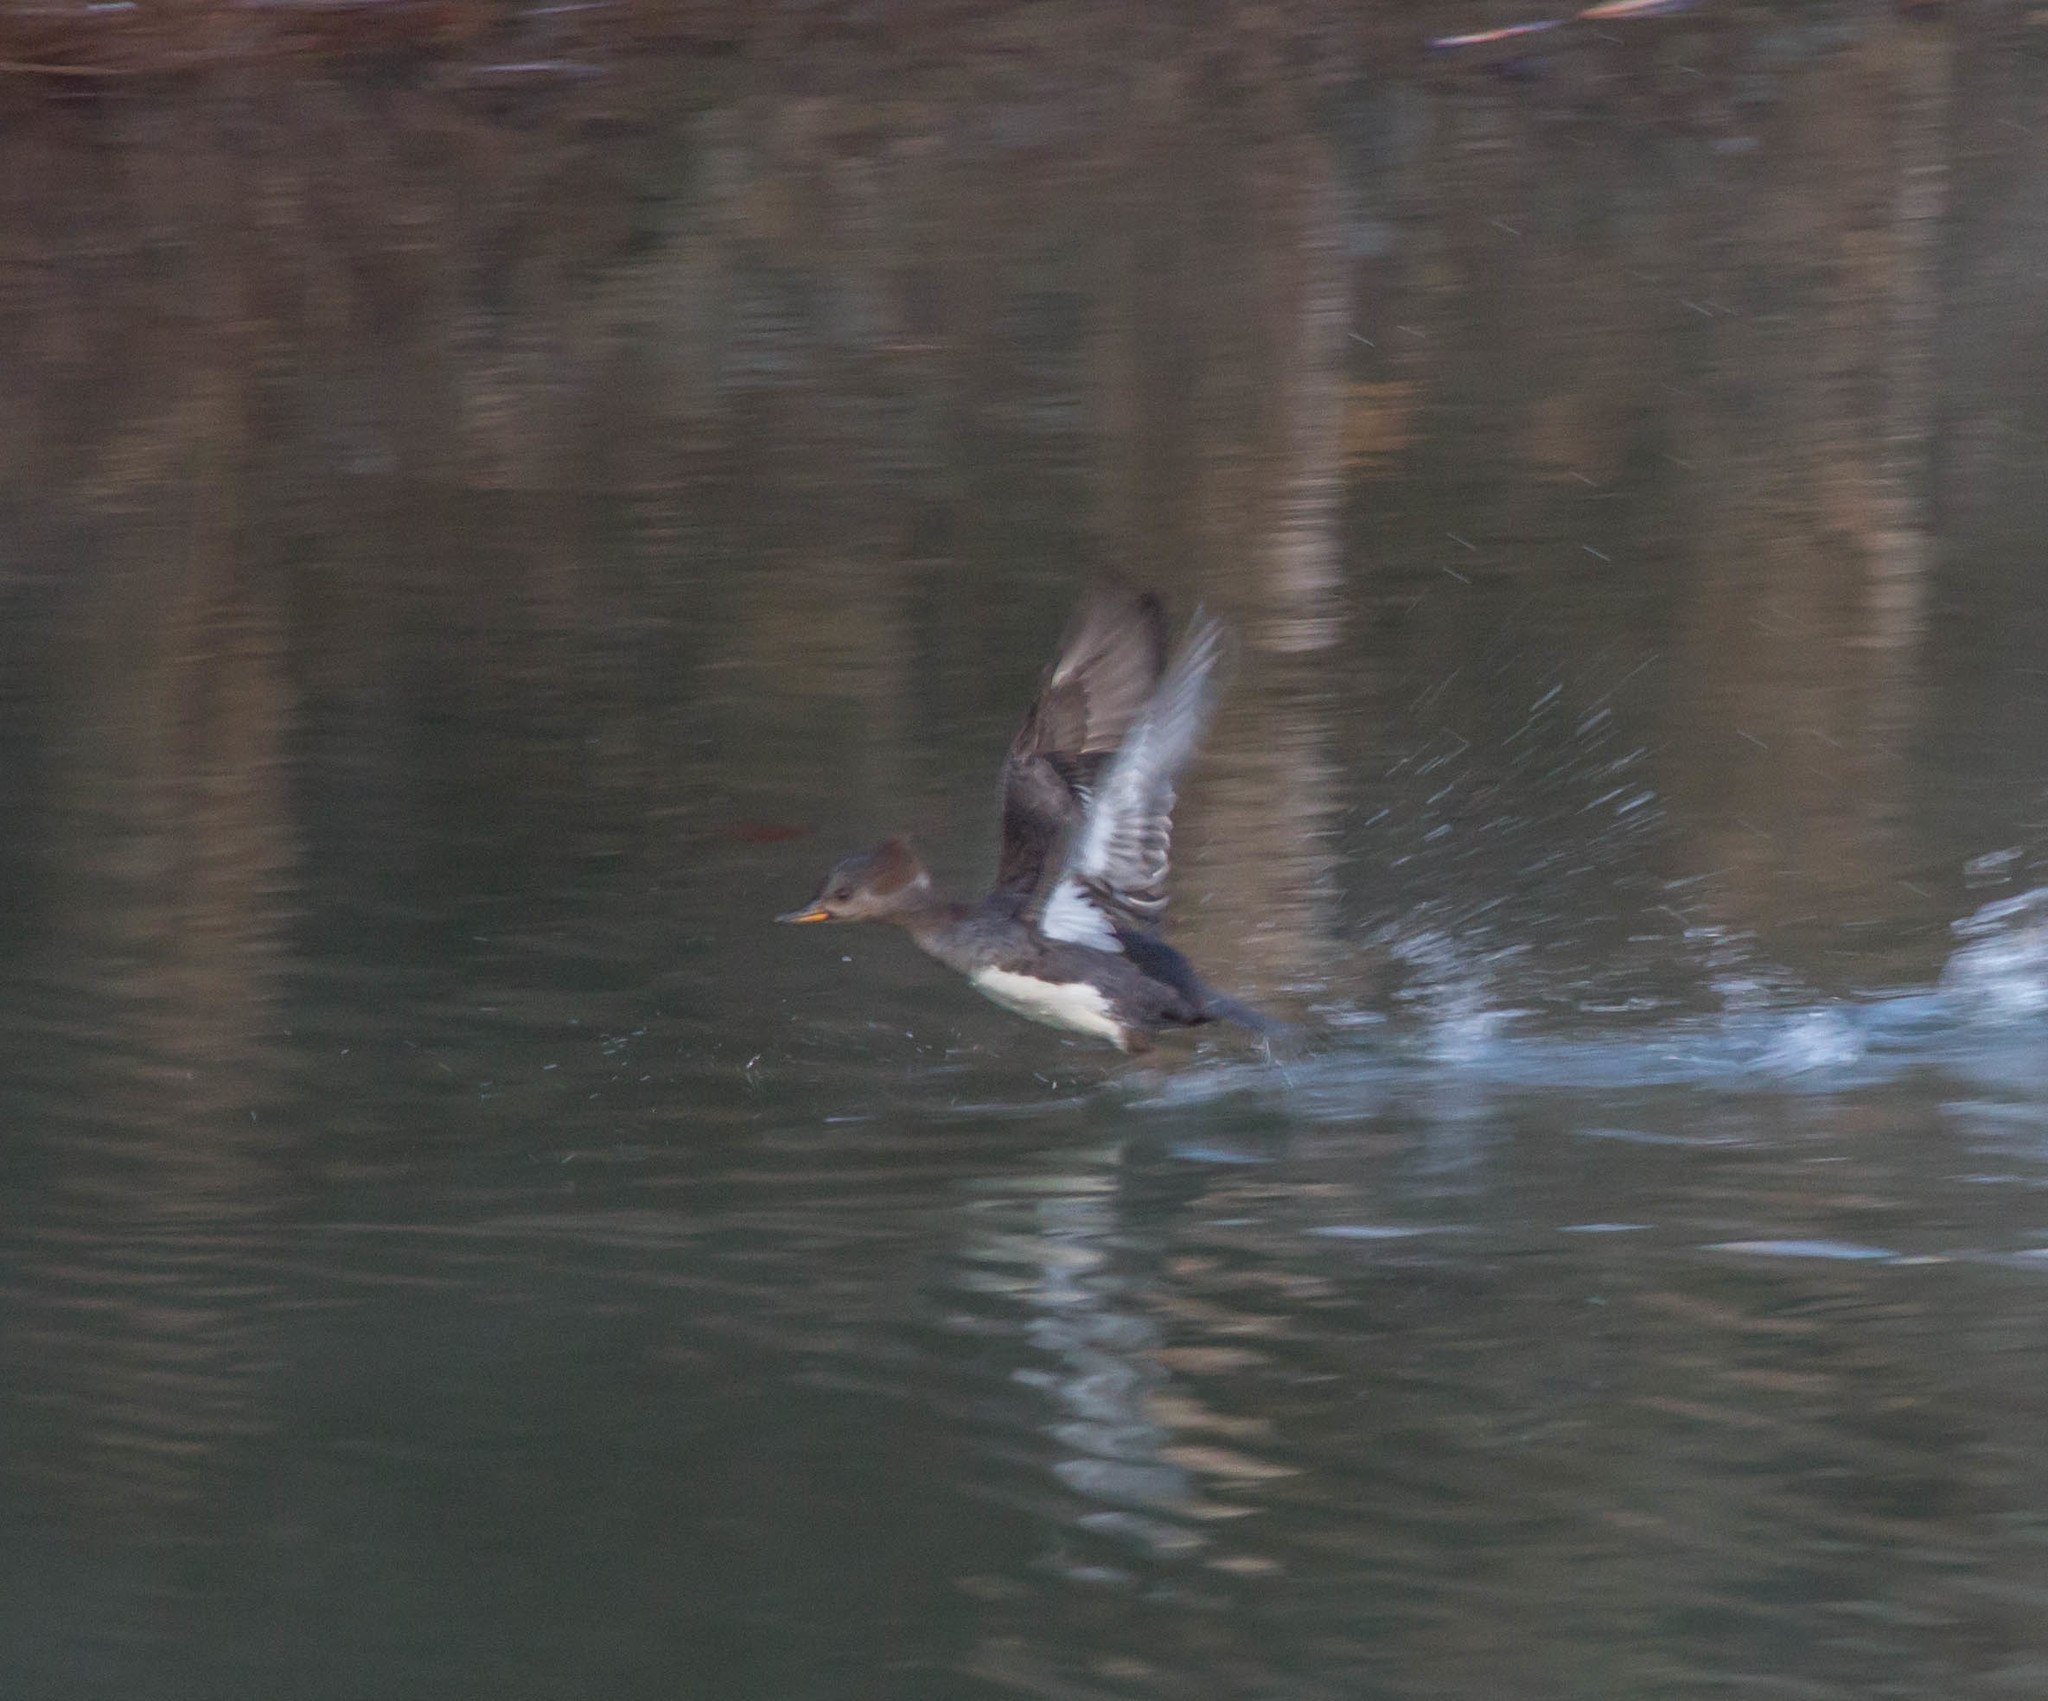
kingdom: Animalia
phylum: Chordata
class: Aves
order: Anseriformes
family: Anatidae
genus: Lophodytes
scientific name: Lophodytes cucullatus
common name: Hooded merganser
